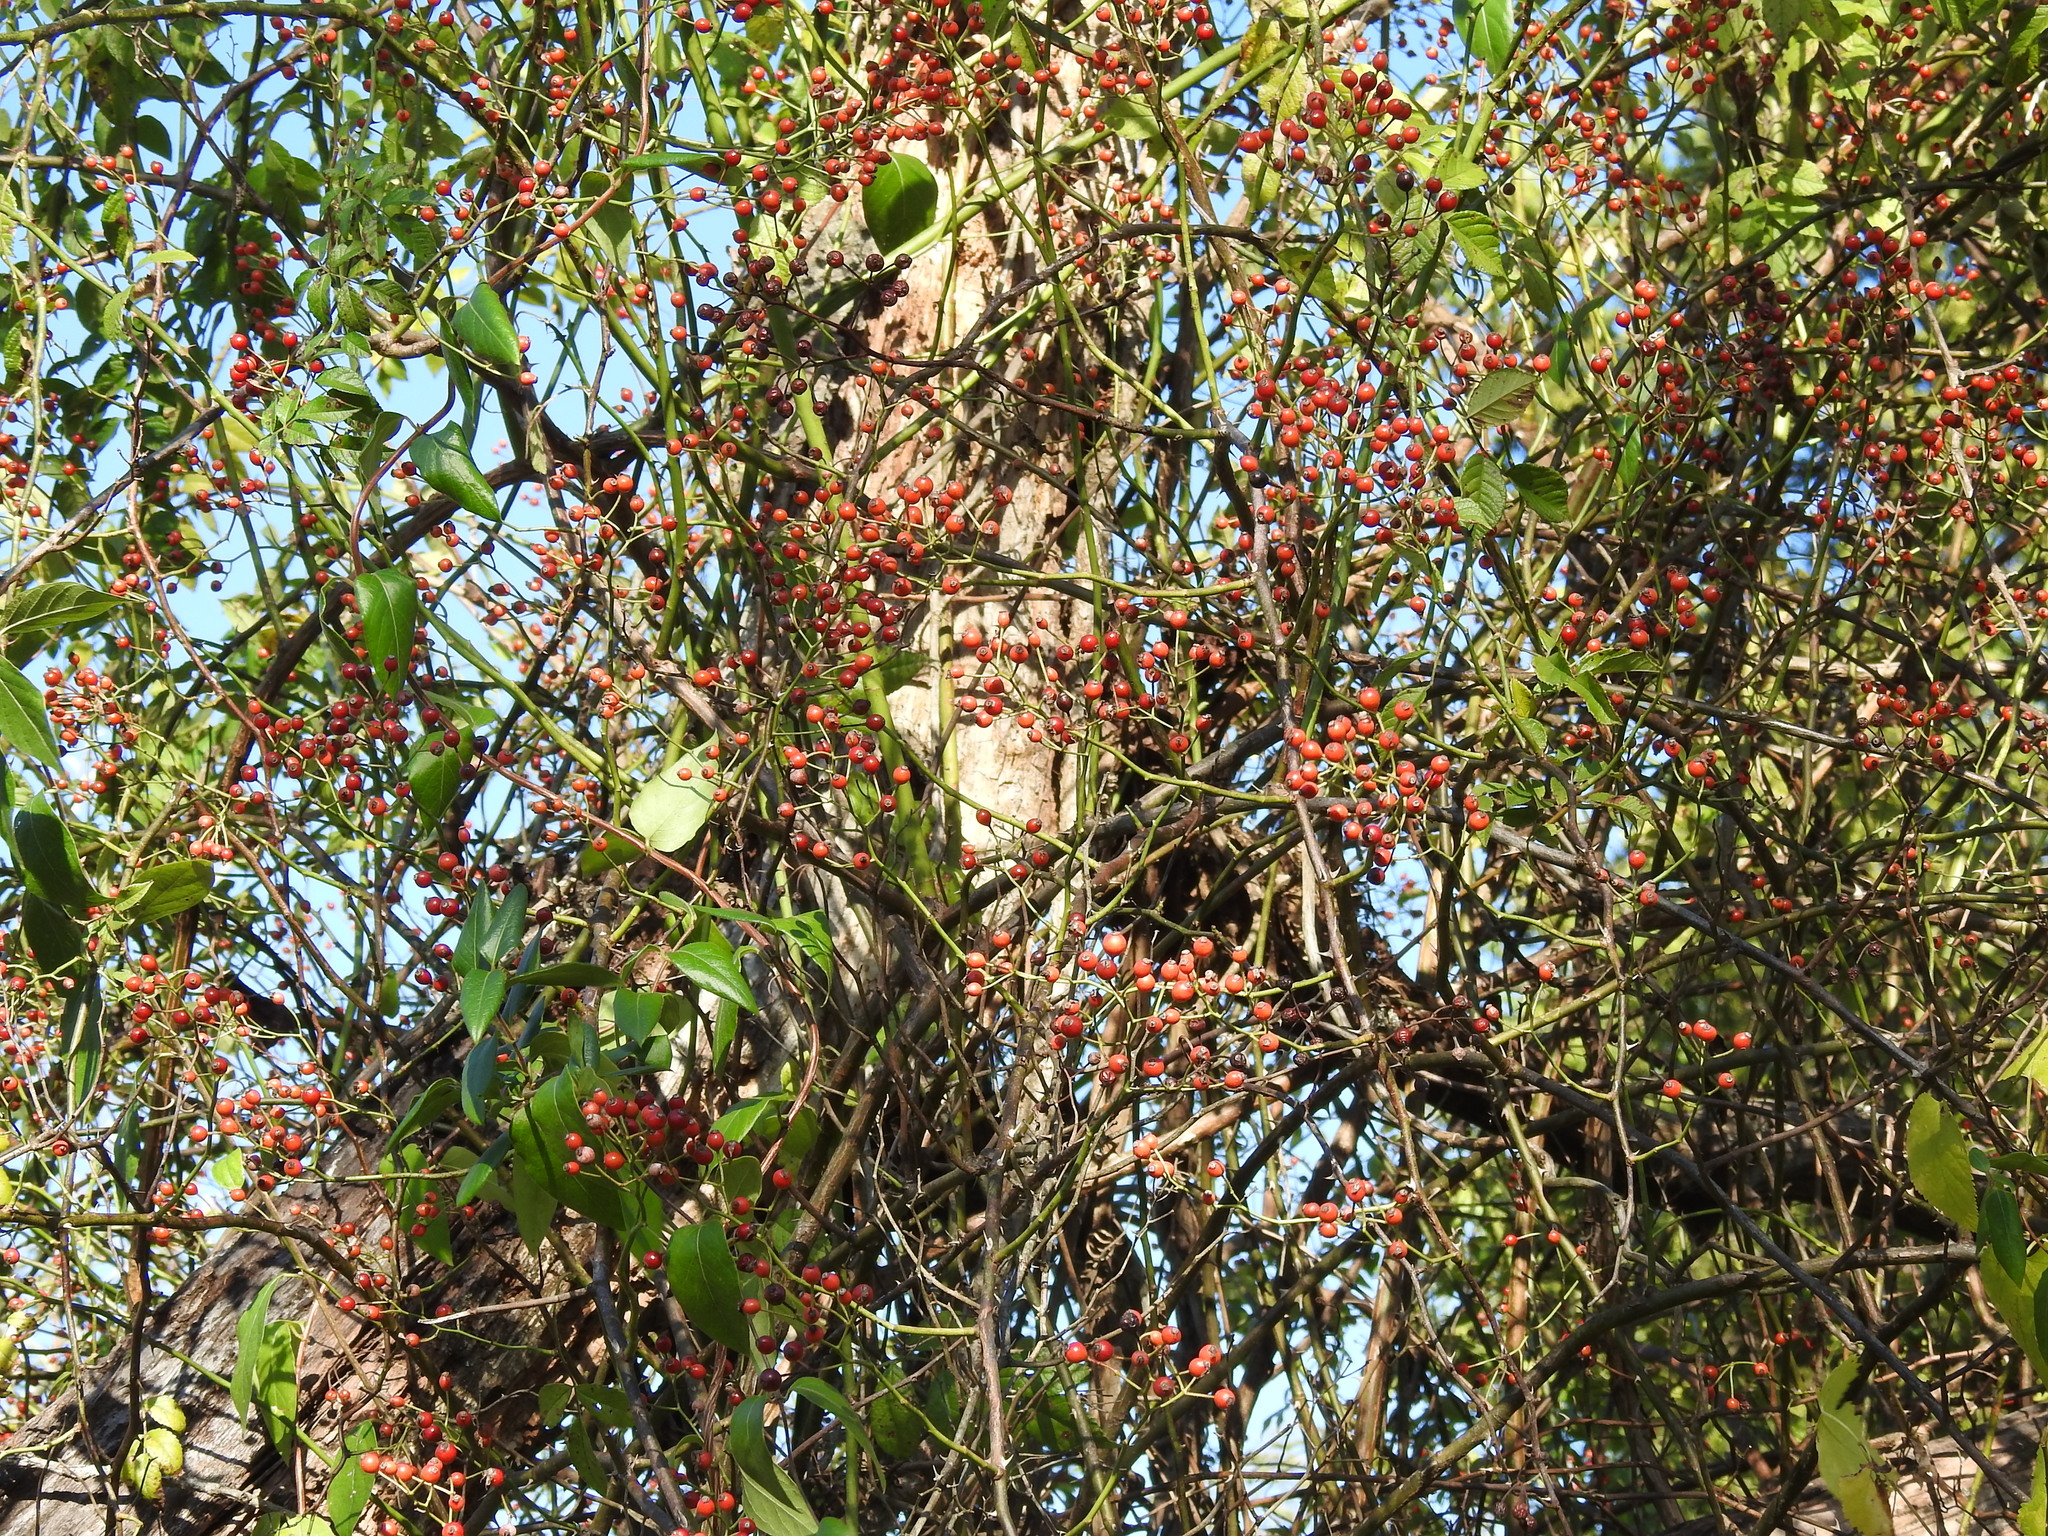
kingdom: Plantae
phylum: Tracheophyta
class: Magnoliopsida
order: Rosales
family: Rosaceae
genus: Rosa
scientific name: Rosa multiflora
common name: Multiflora rose
